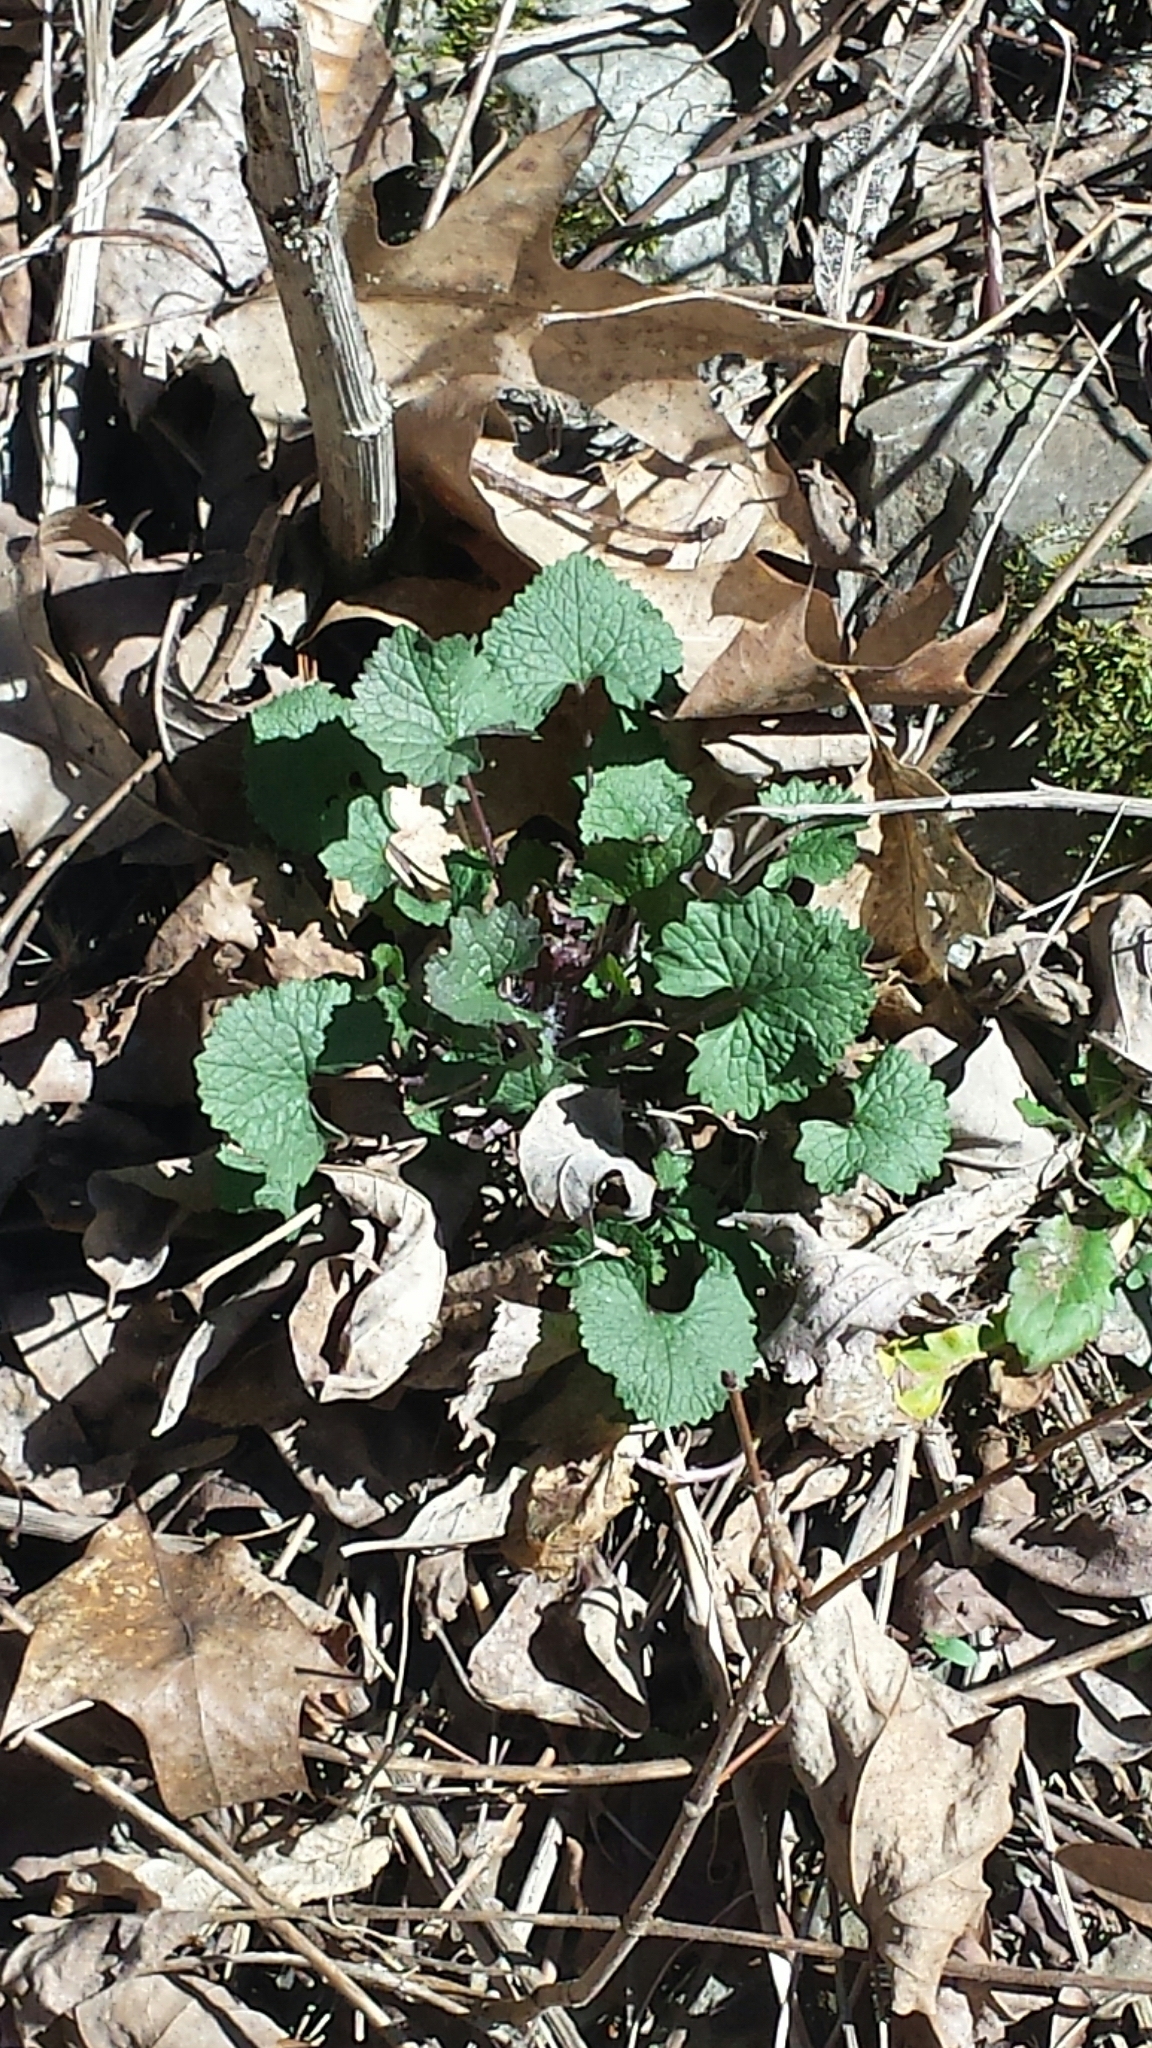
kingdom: Plantae
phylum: Tracheophyta
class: Magnoliopsida
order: Brassicales
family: Brassicaceae
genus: Alliaria
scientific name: Alliaria petiolata
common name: Garlic mustard
